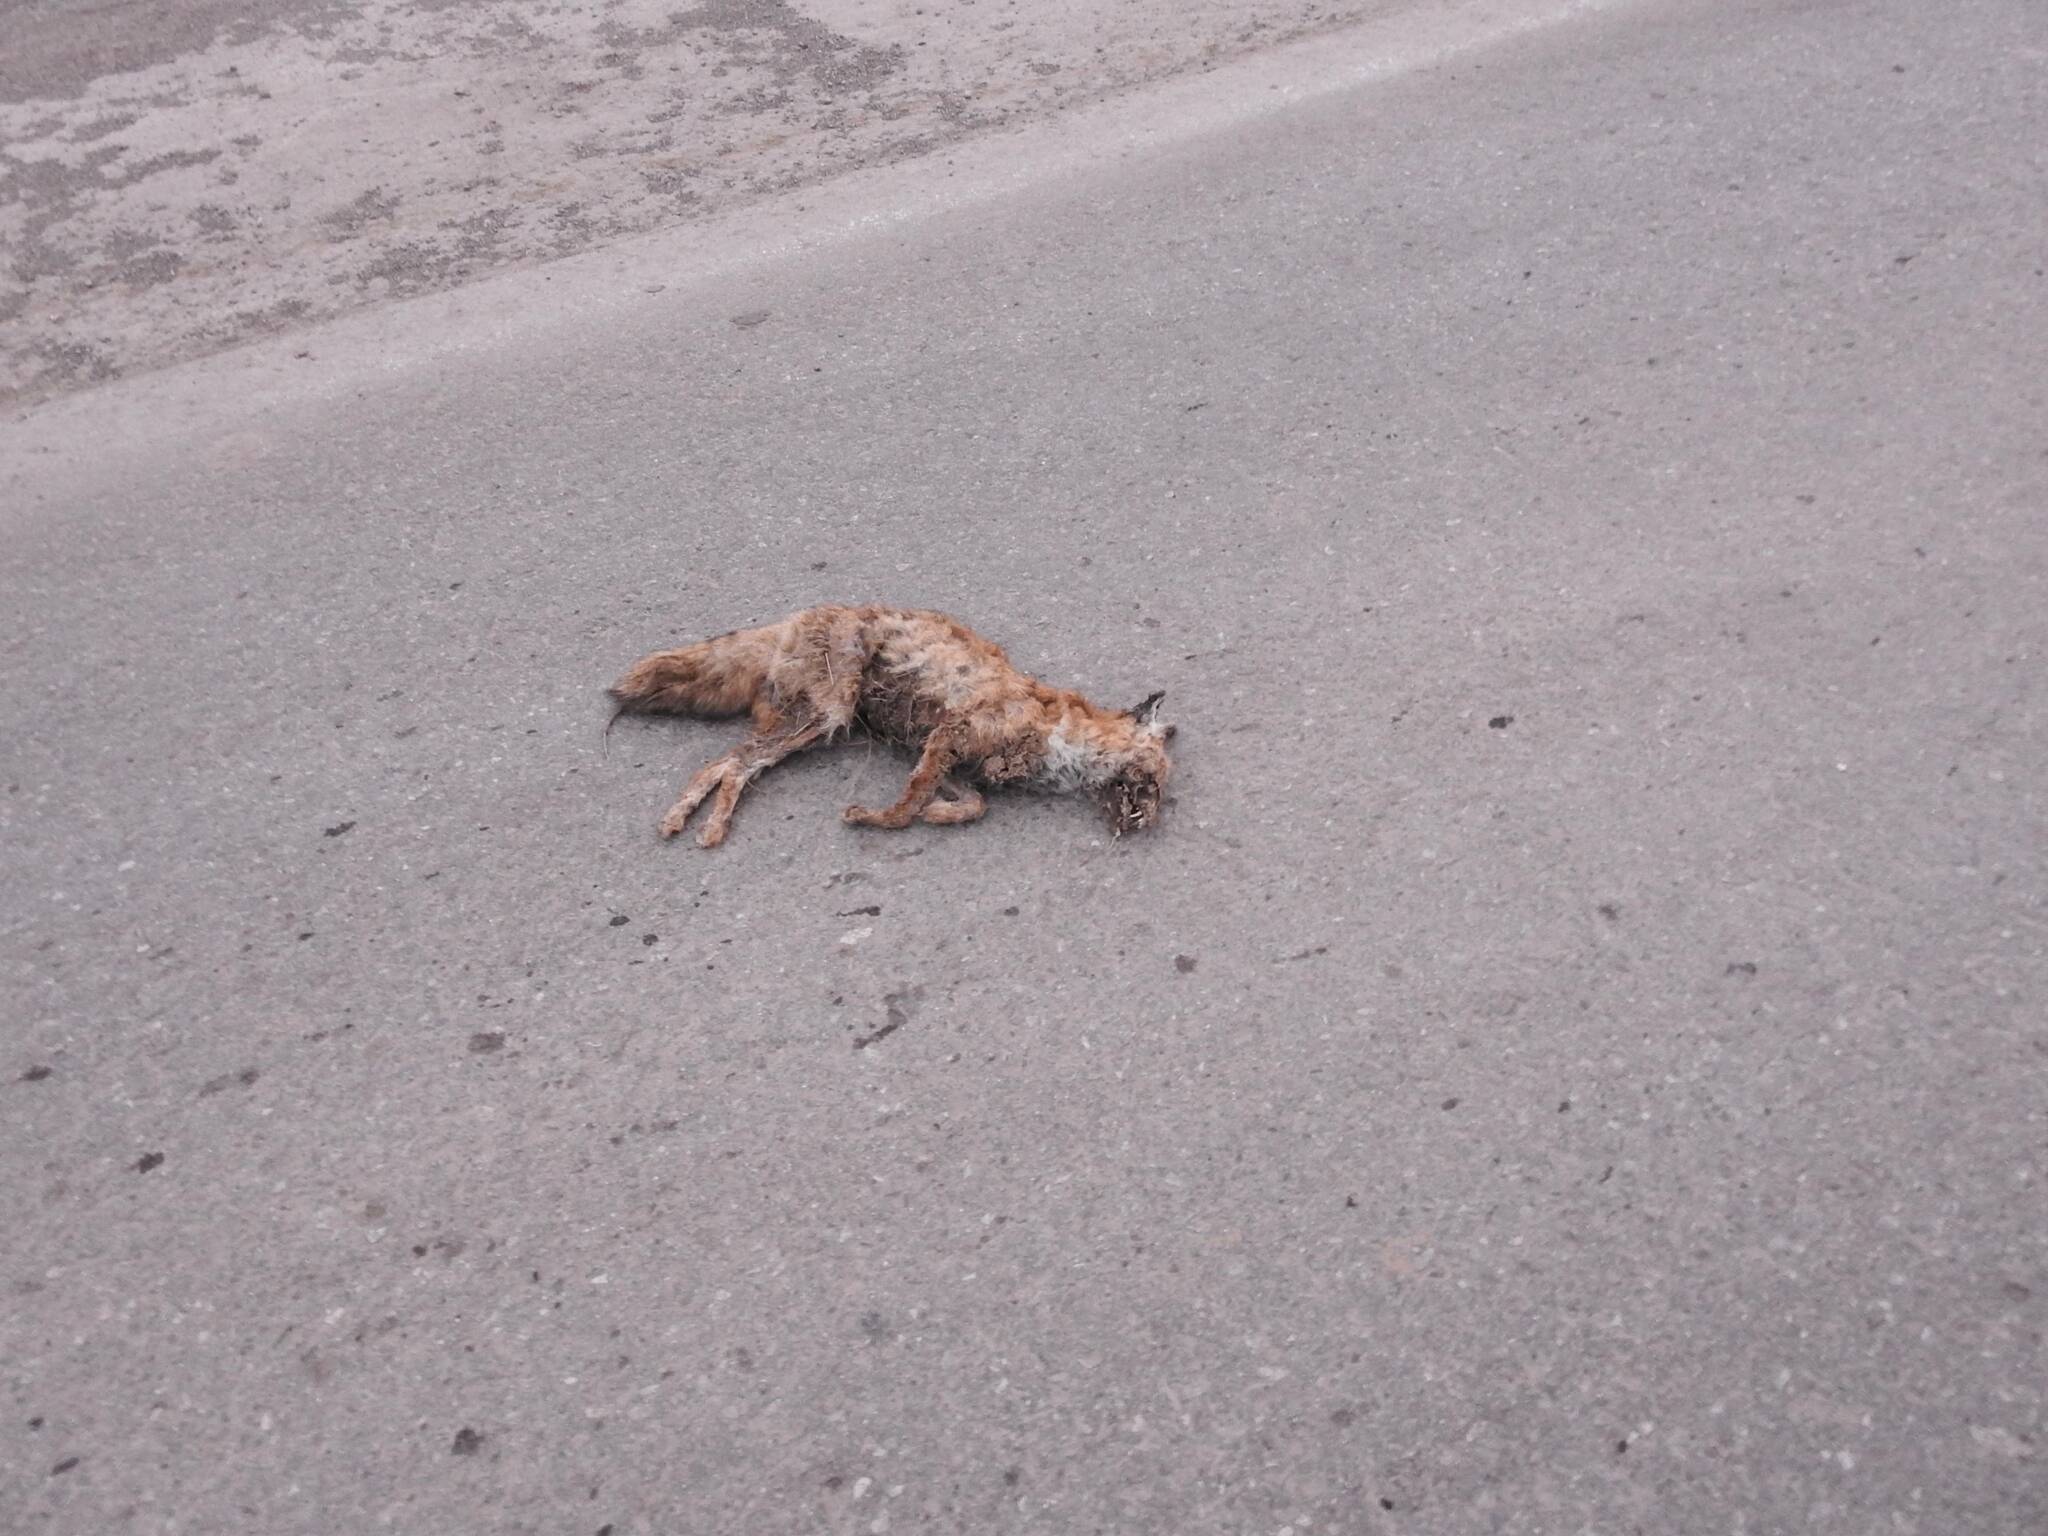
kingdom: Animalia
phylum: Chordata
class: Mammalia
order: Carnivora
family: Canidae
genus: Vulpes
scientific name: Vulpes vulpes
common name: Red fox
